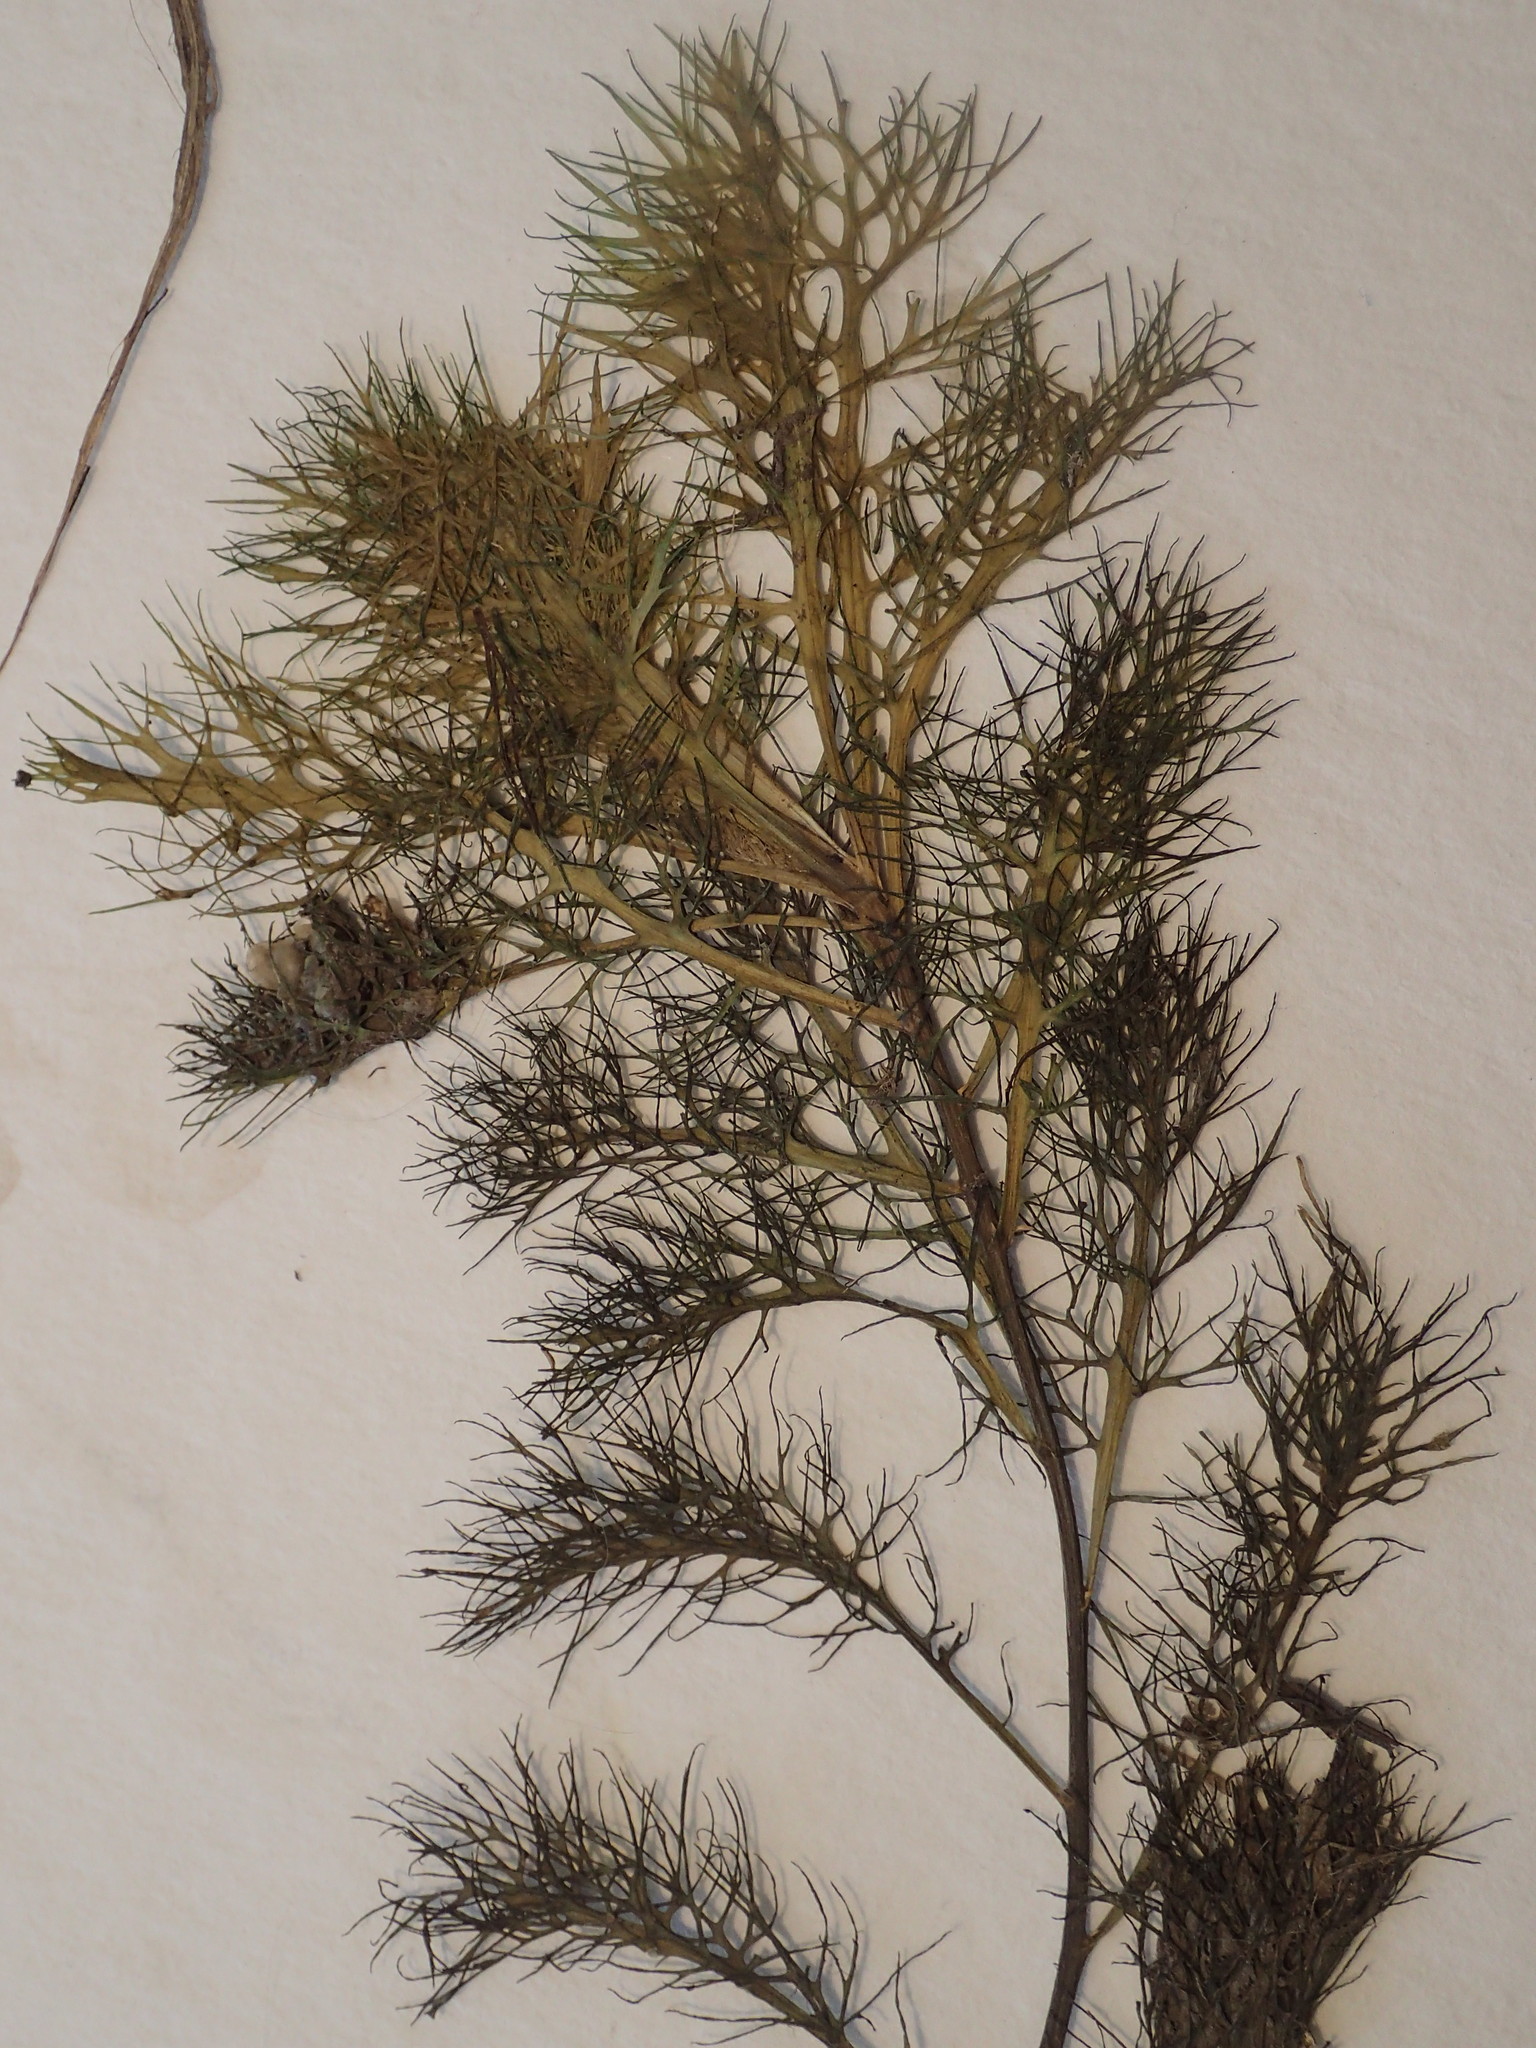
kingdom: Plantae
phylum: Tracheophyta
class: Magnoliopsida
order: Brassicales
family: Brassicaceae
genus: Rorippa
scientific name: Rorippa aquatica
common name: Lake watercress
